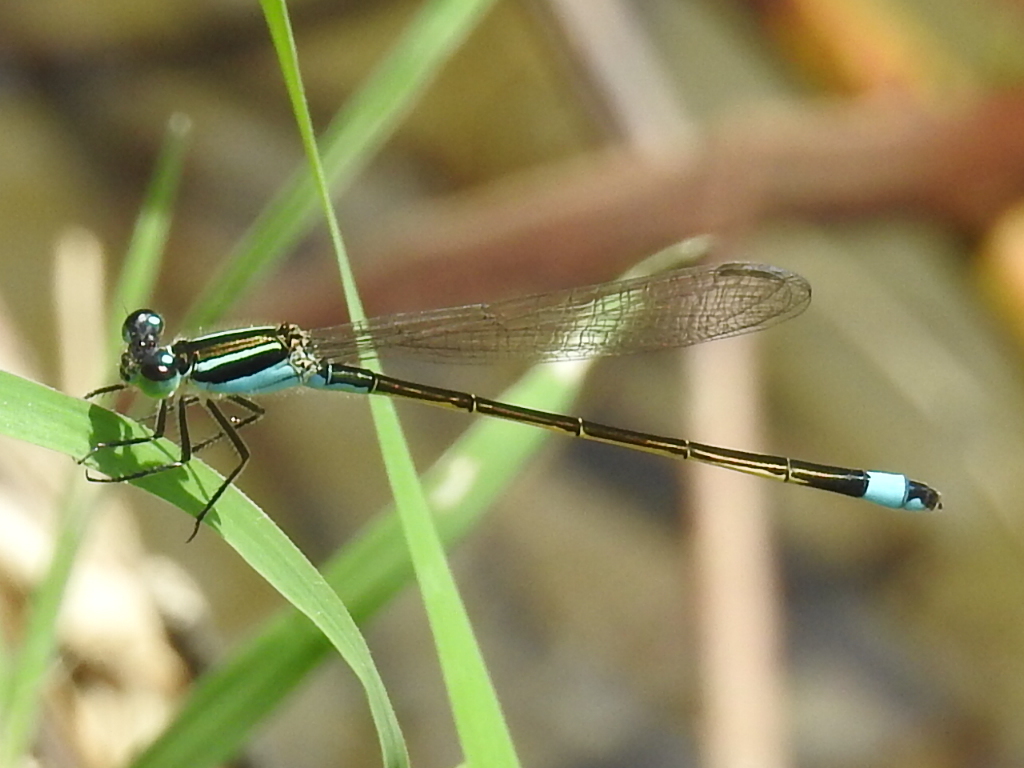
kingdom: Animalia
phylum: Arthropoda
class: Insecta
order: Odonata
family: Coenagrionidae
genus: Ischnura
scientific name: Ischnura ramburii
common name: Rambur's forktail
